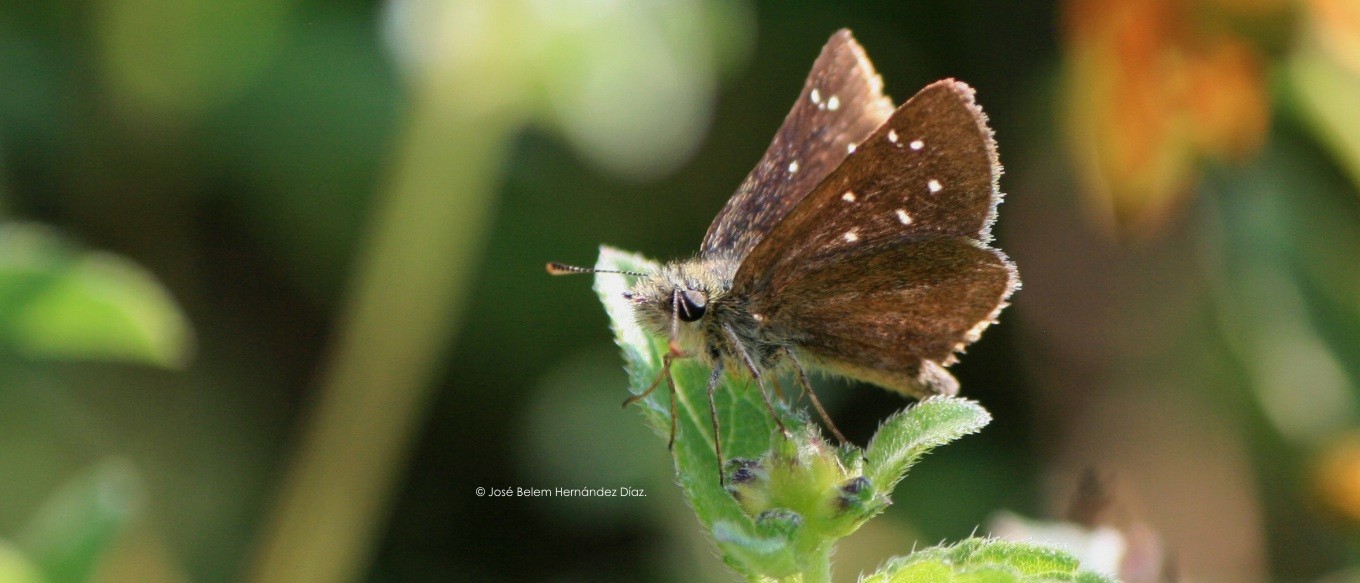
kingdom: Animalia
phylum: Arthropoda
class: Insecta
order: Lepidoptera
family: Hesperiidae
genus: Piruna
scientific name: Piruna cyclosticta
